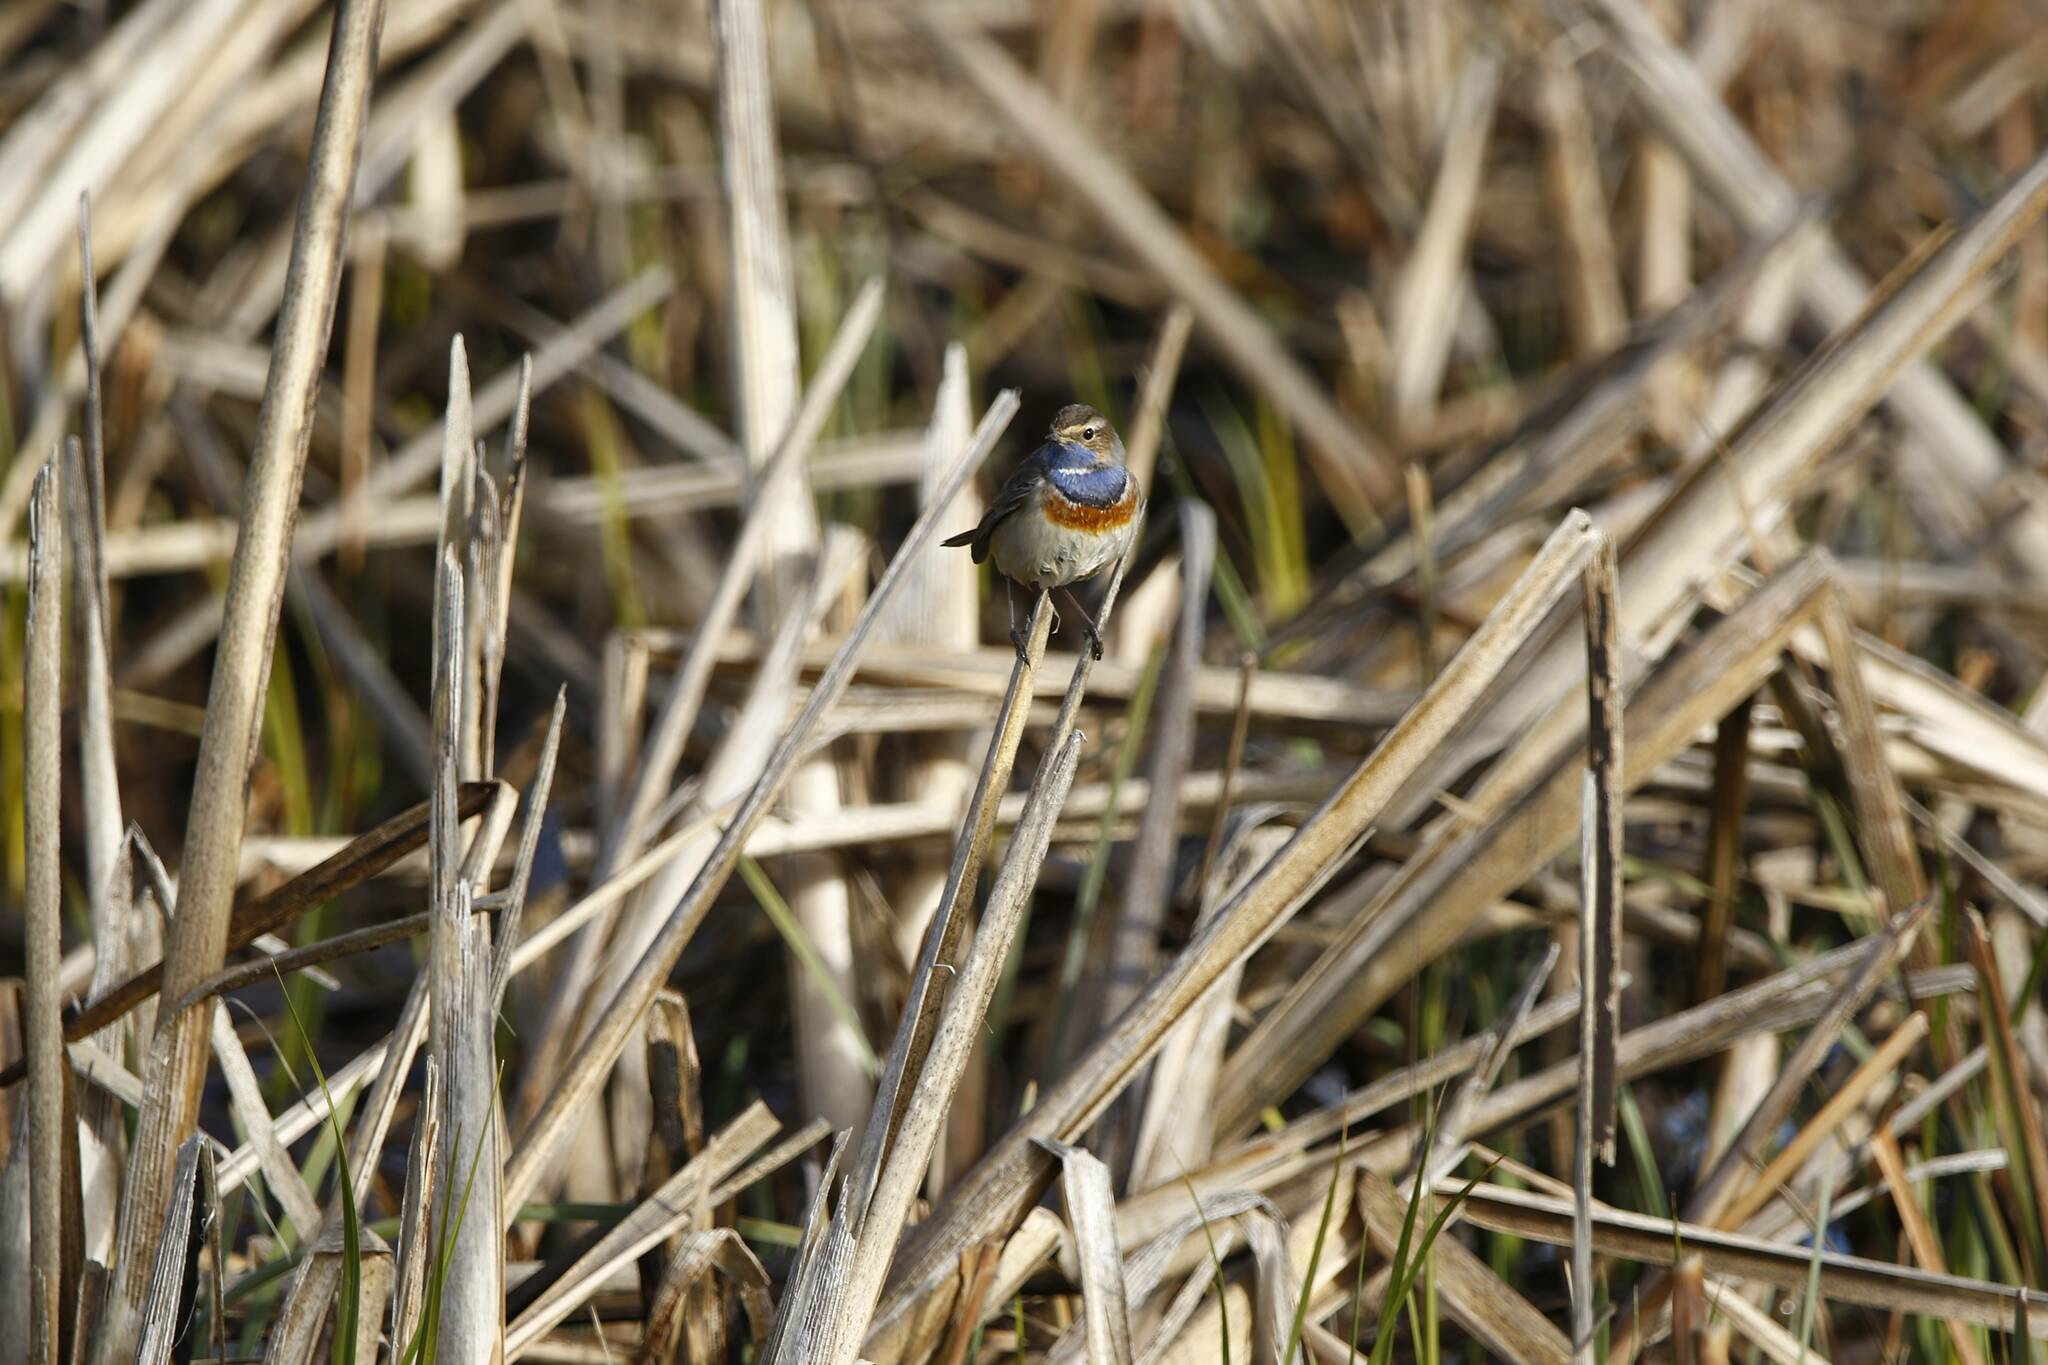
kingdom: Animalia
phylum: Chordata
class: Aves
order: Passeriformes
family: Muscicapidae
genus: Luscinia
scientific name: Luscinia svecica
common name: Bluethroat
